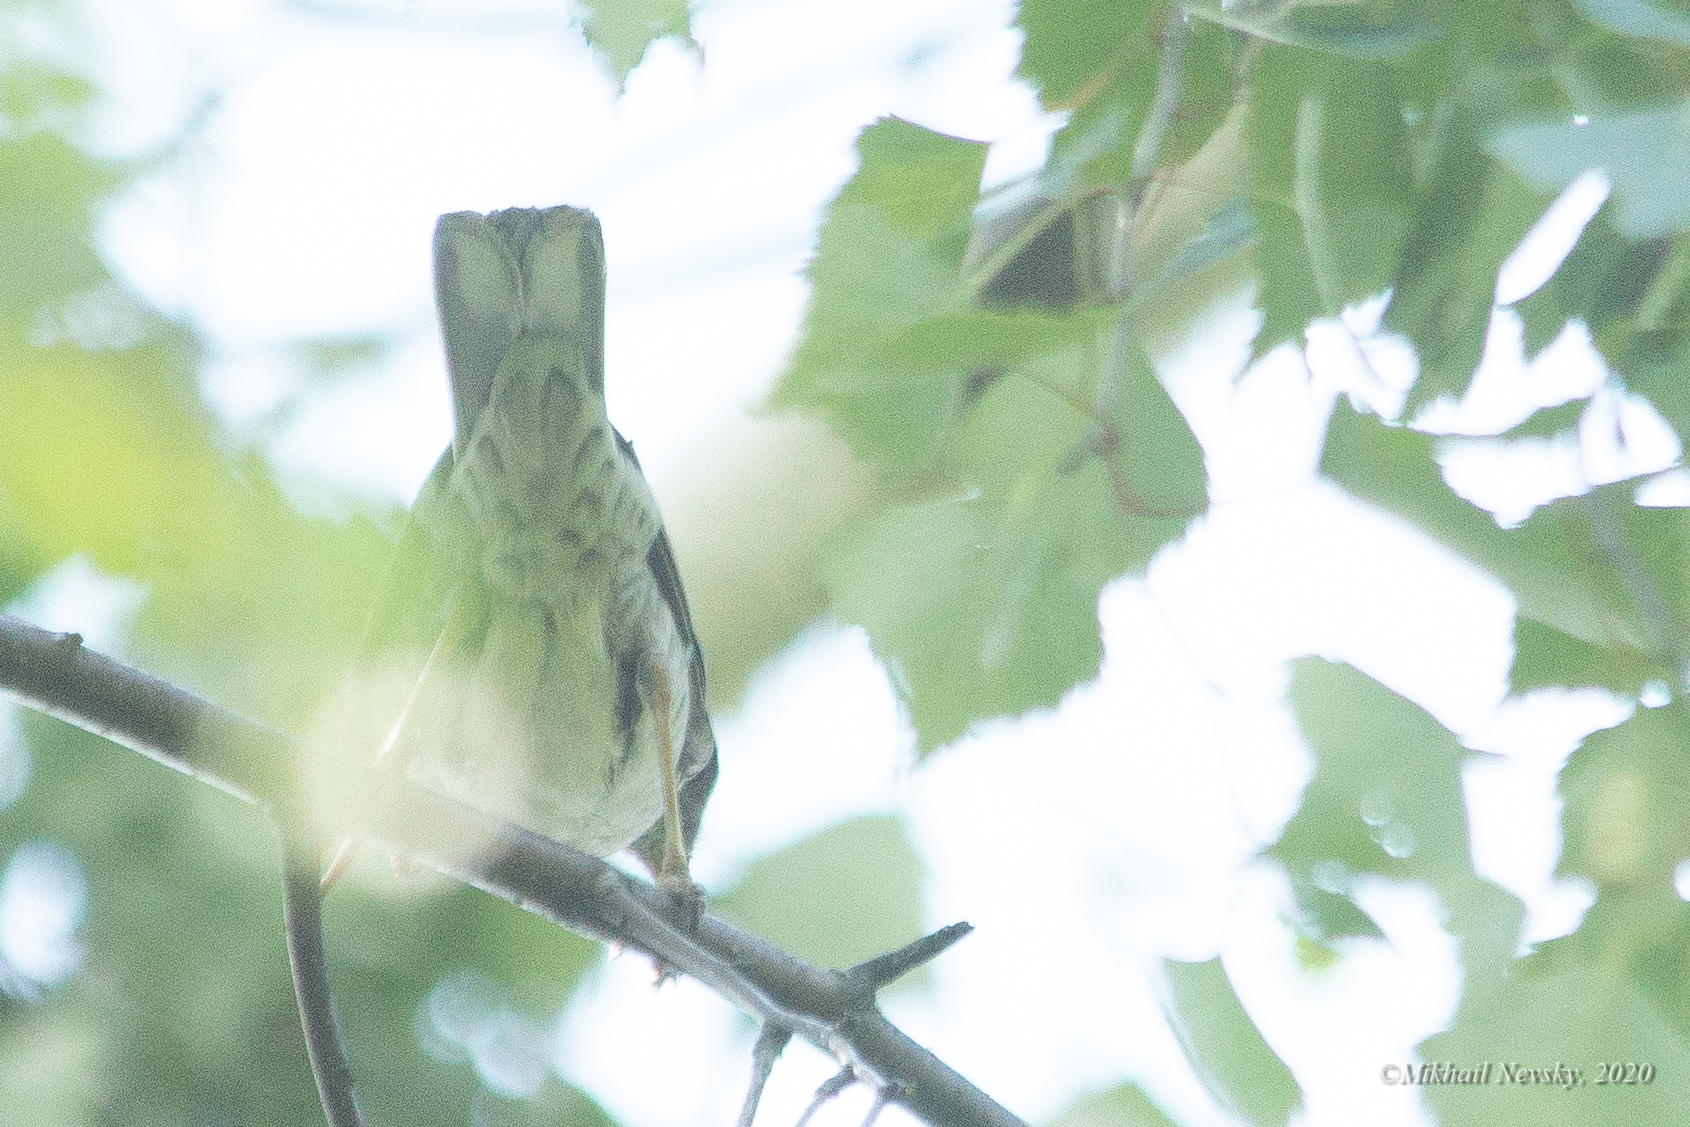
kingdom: Animalia
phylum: Chordata
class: Aves
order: Passeriformes
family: Sylviidae
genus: Sylvia
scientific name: Sylvia nisoria
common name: Barred warbler
